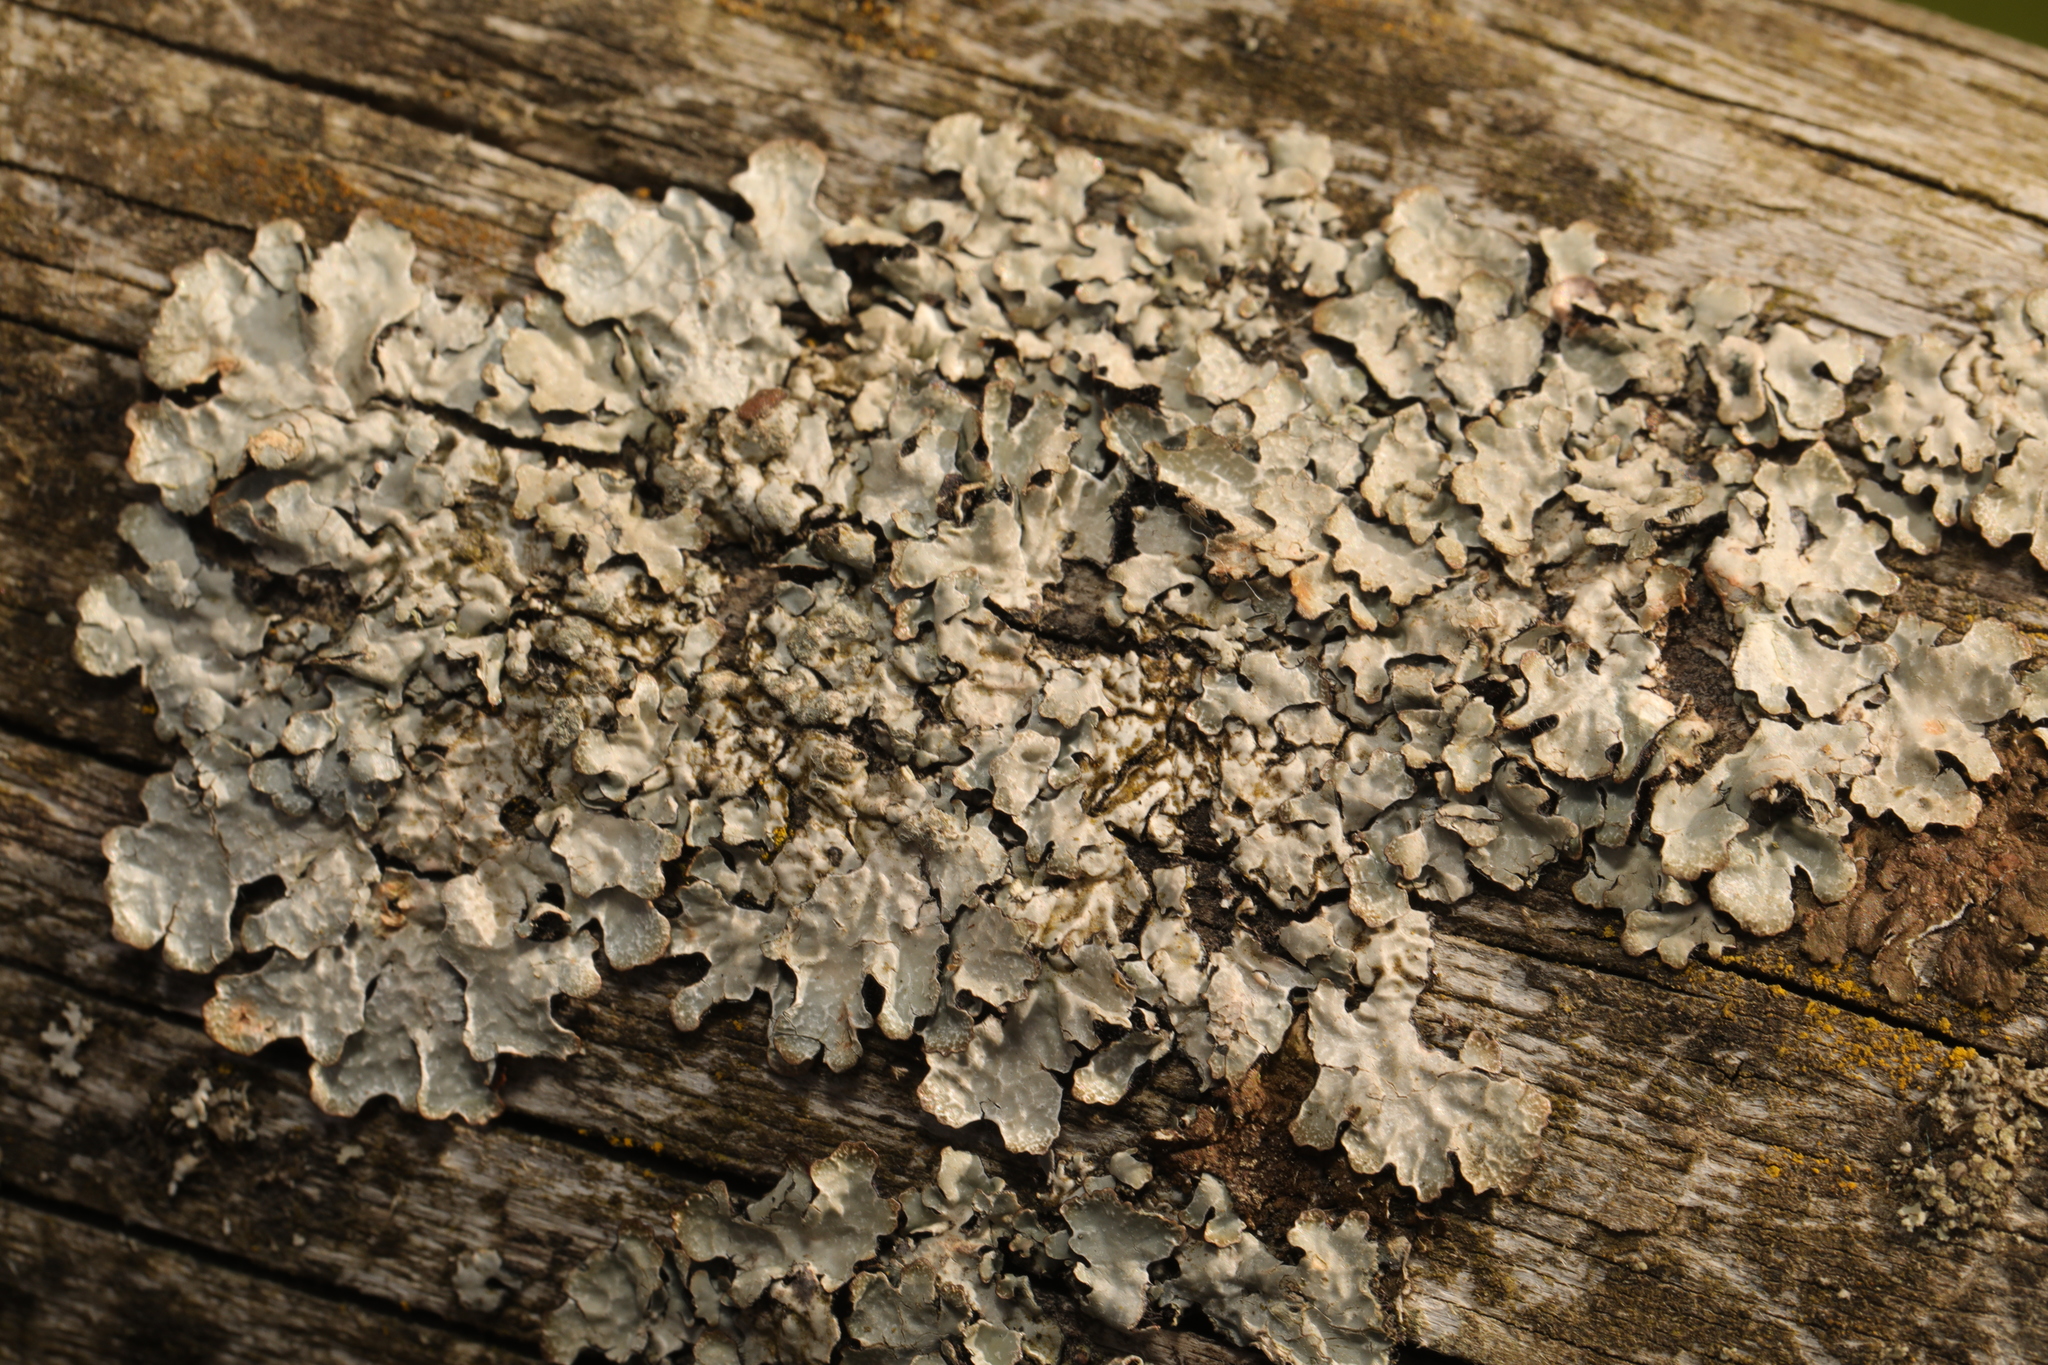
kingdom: Fungi
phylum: Ascomycota
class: Lecanoromycetes
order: Lecanorales
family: Parmeliaceae
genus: Parmelia
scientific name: Parmelia sulcata
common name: Netted shield lichen
